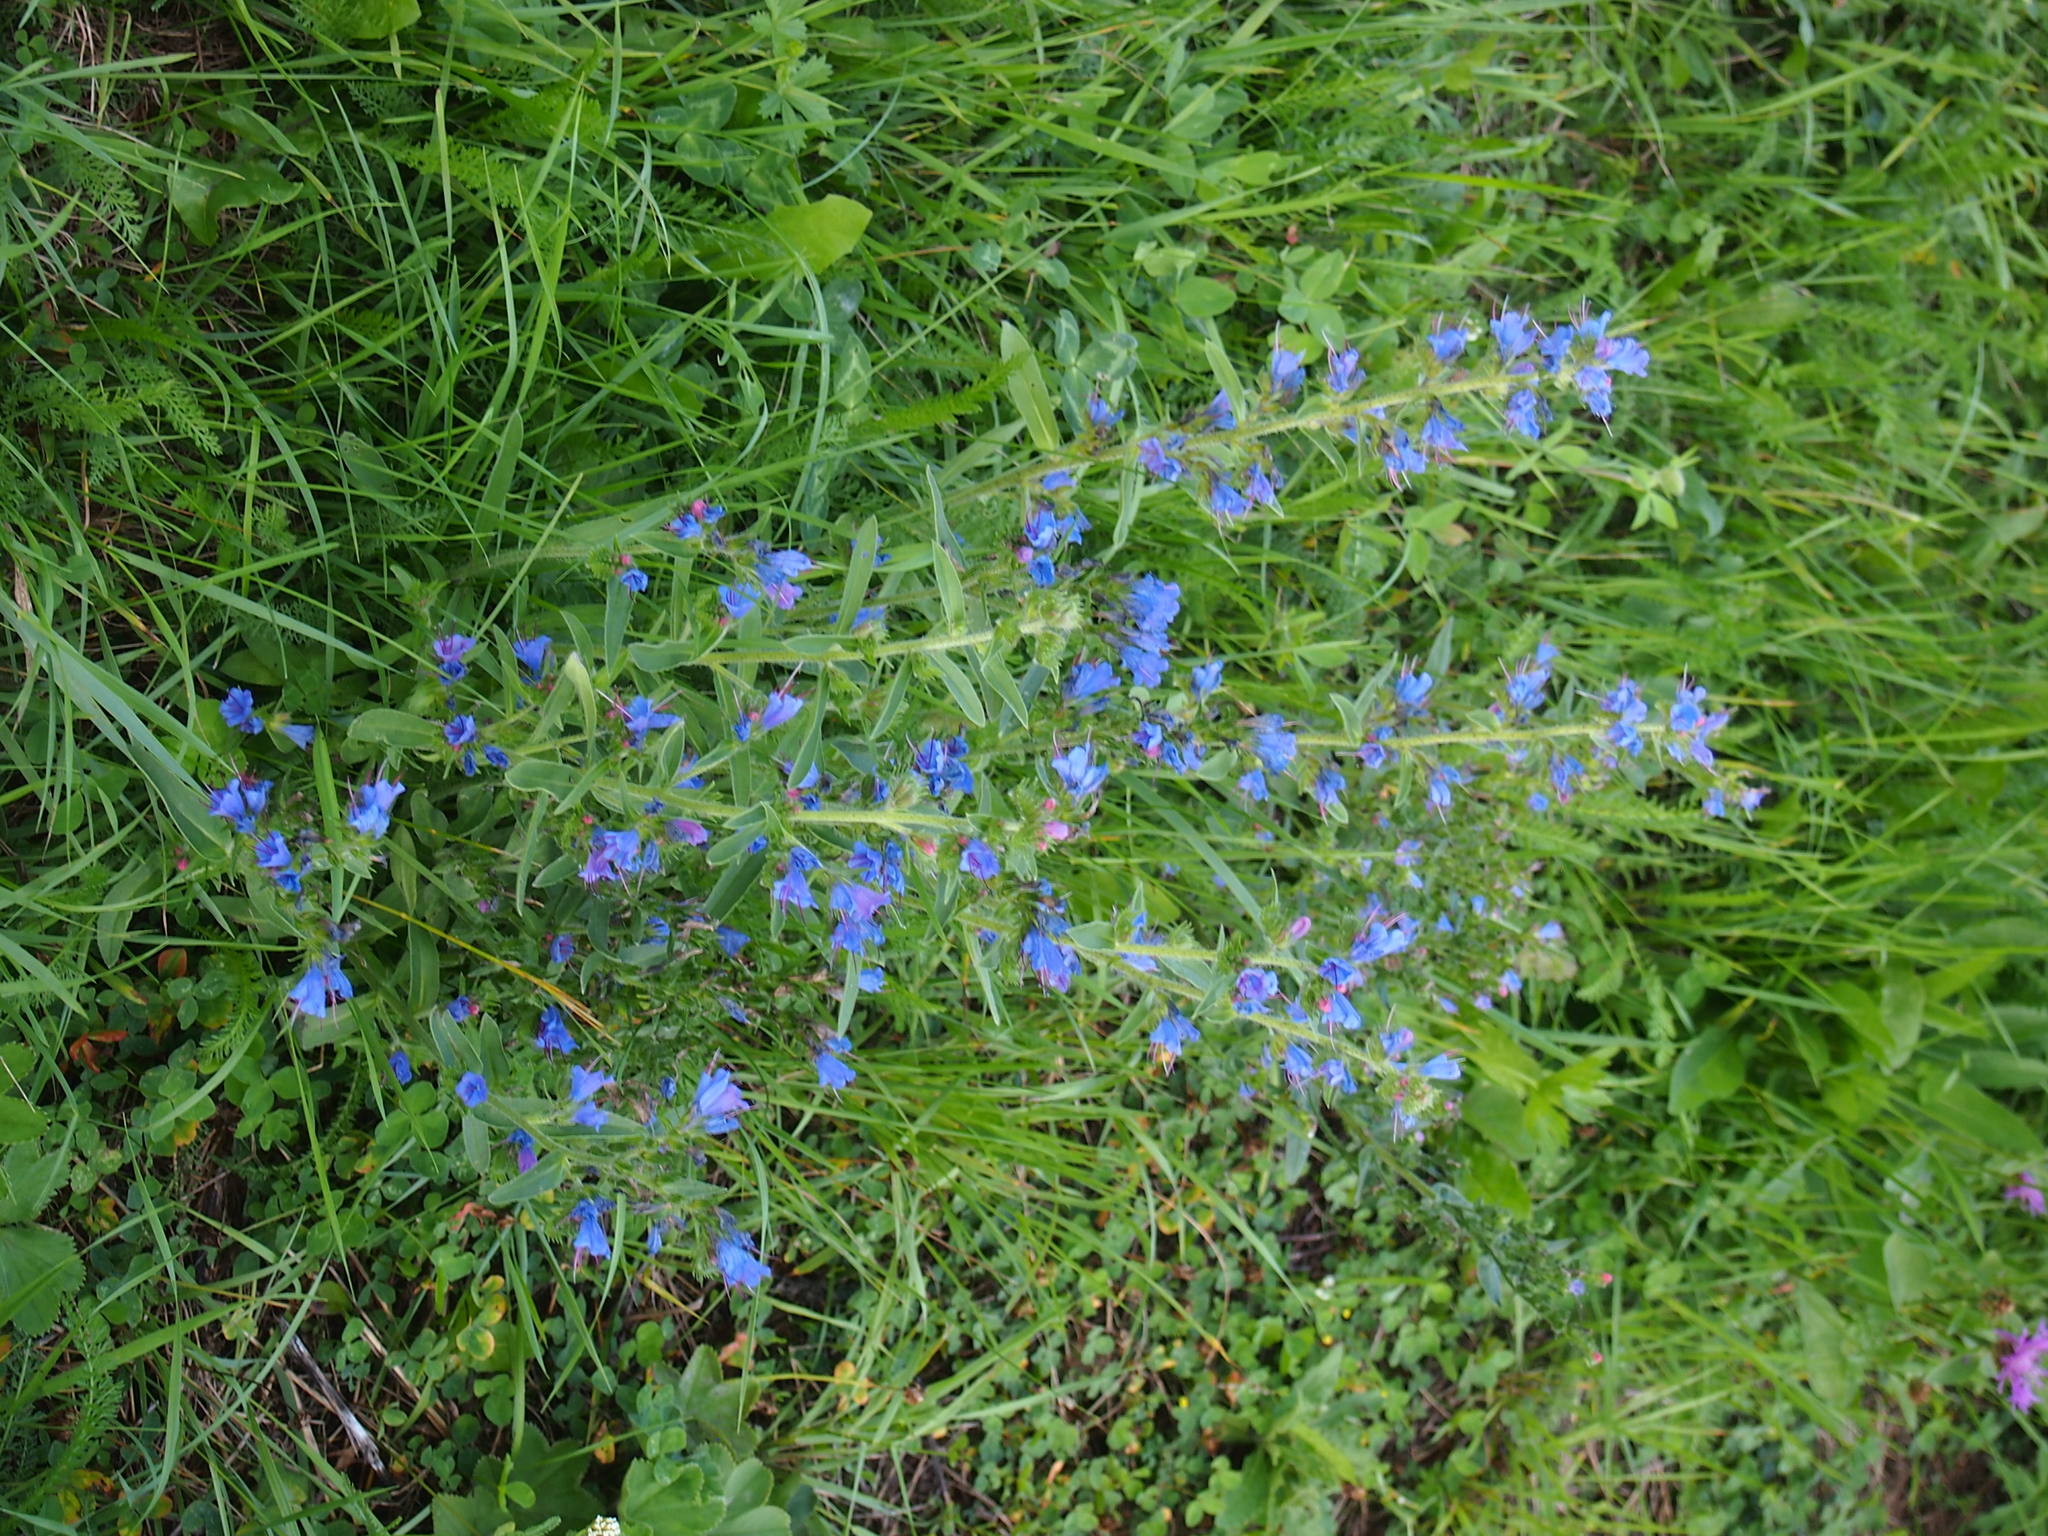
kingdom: Plantae
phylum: Tracheophyta
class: Magnoliopsida
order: Boraginales
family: Boraginaceae
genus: Echium
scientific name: Echium vulgare
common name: Common viper's bugloss
